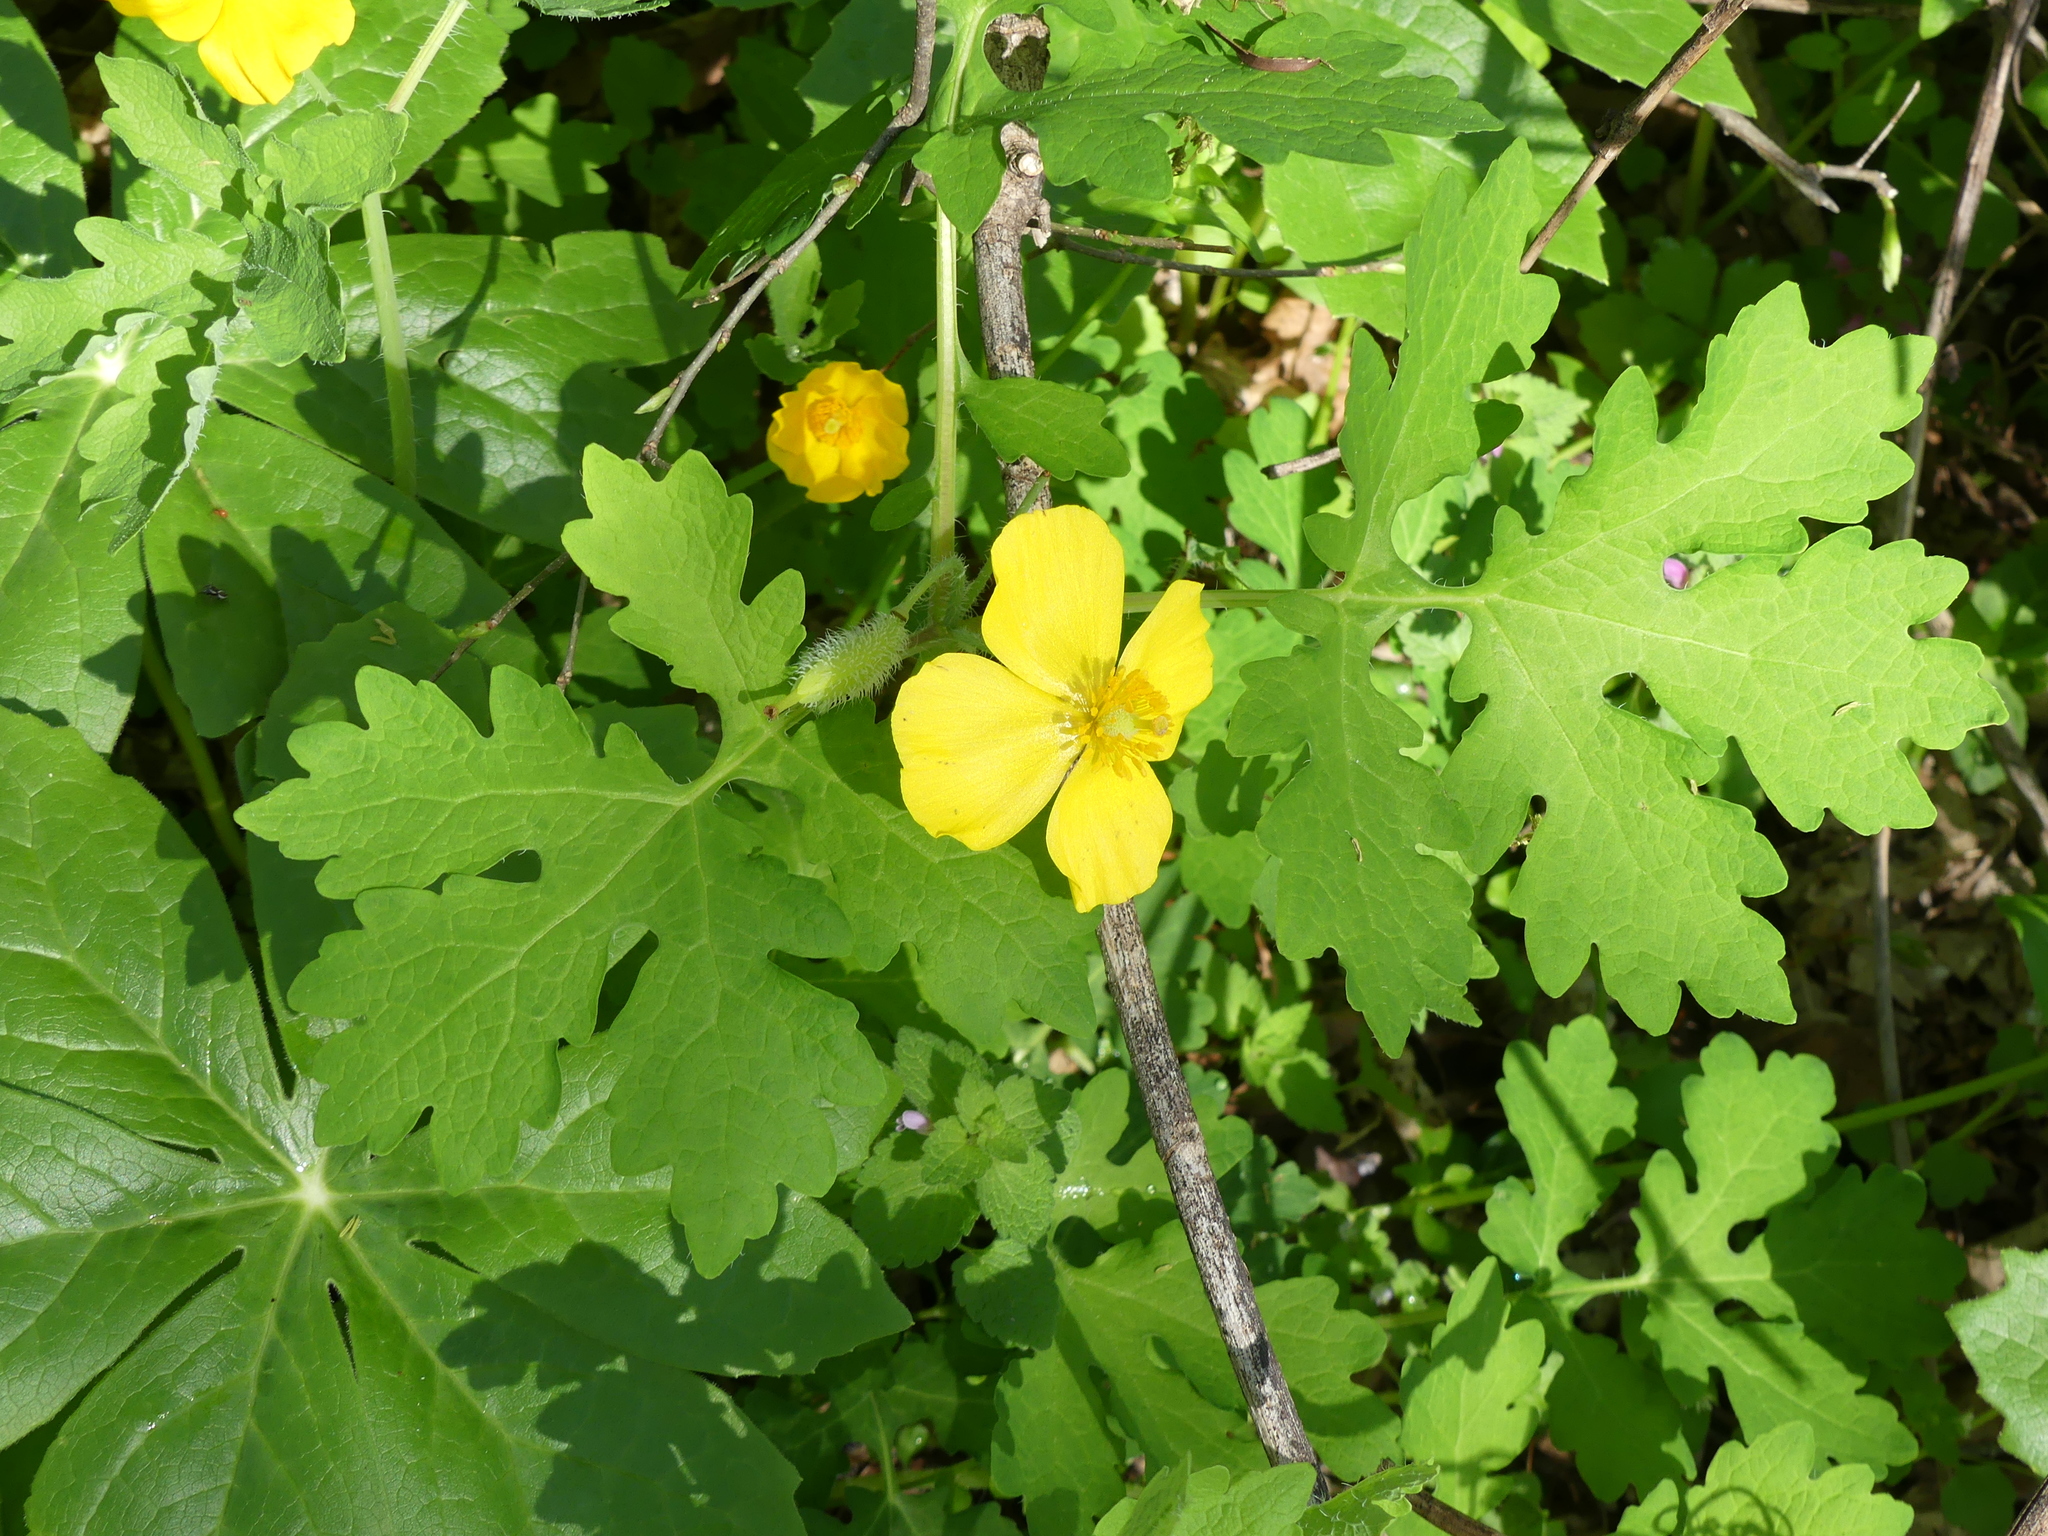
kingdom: Plantae
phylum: Tracheophyta
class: Magnoliopsida
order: Ranunculales
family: Papaveraceae
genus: Stylophorum
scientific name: Stylophorum diphyllum
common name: Celandine poppy
